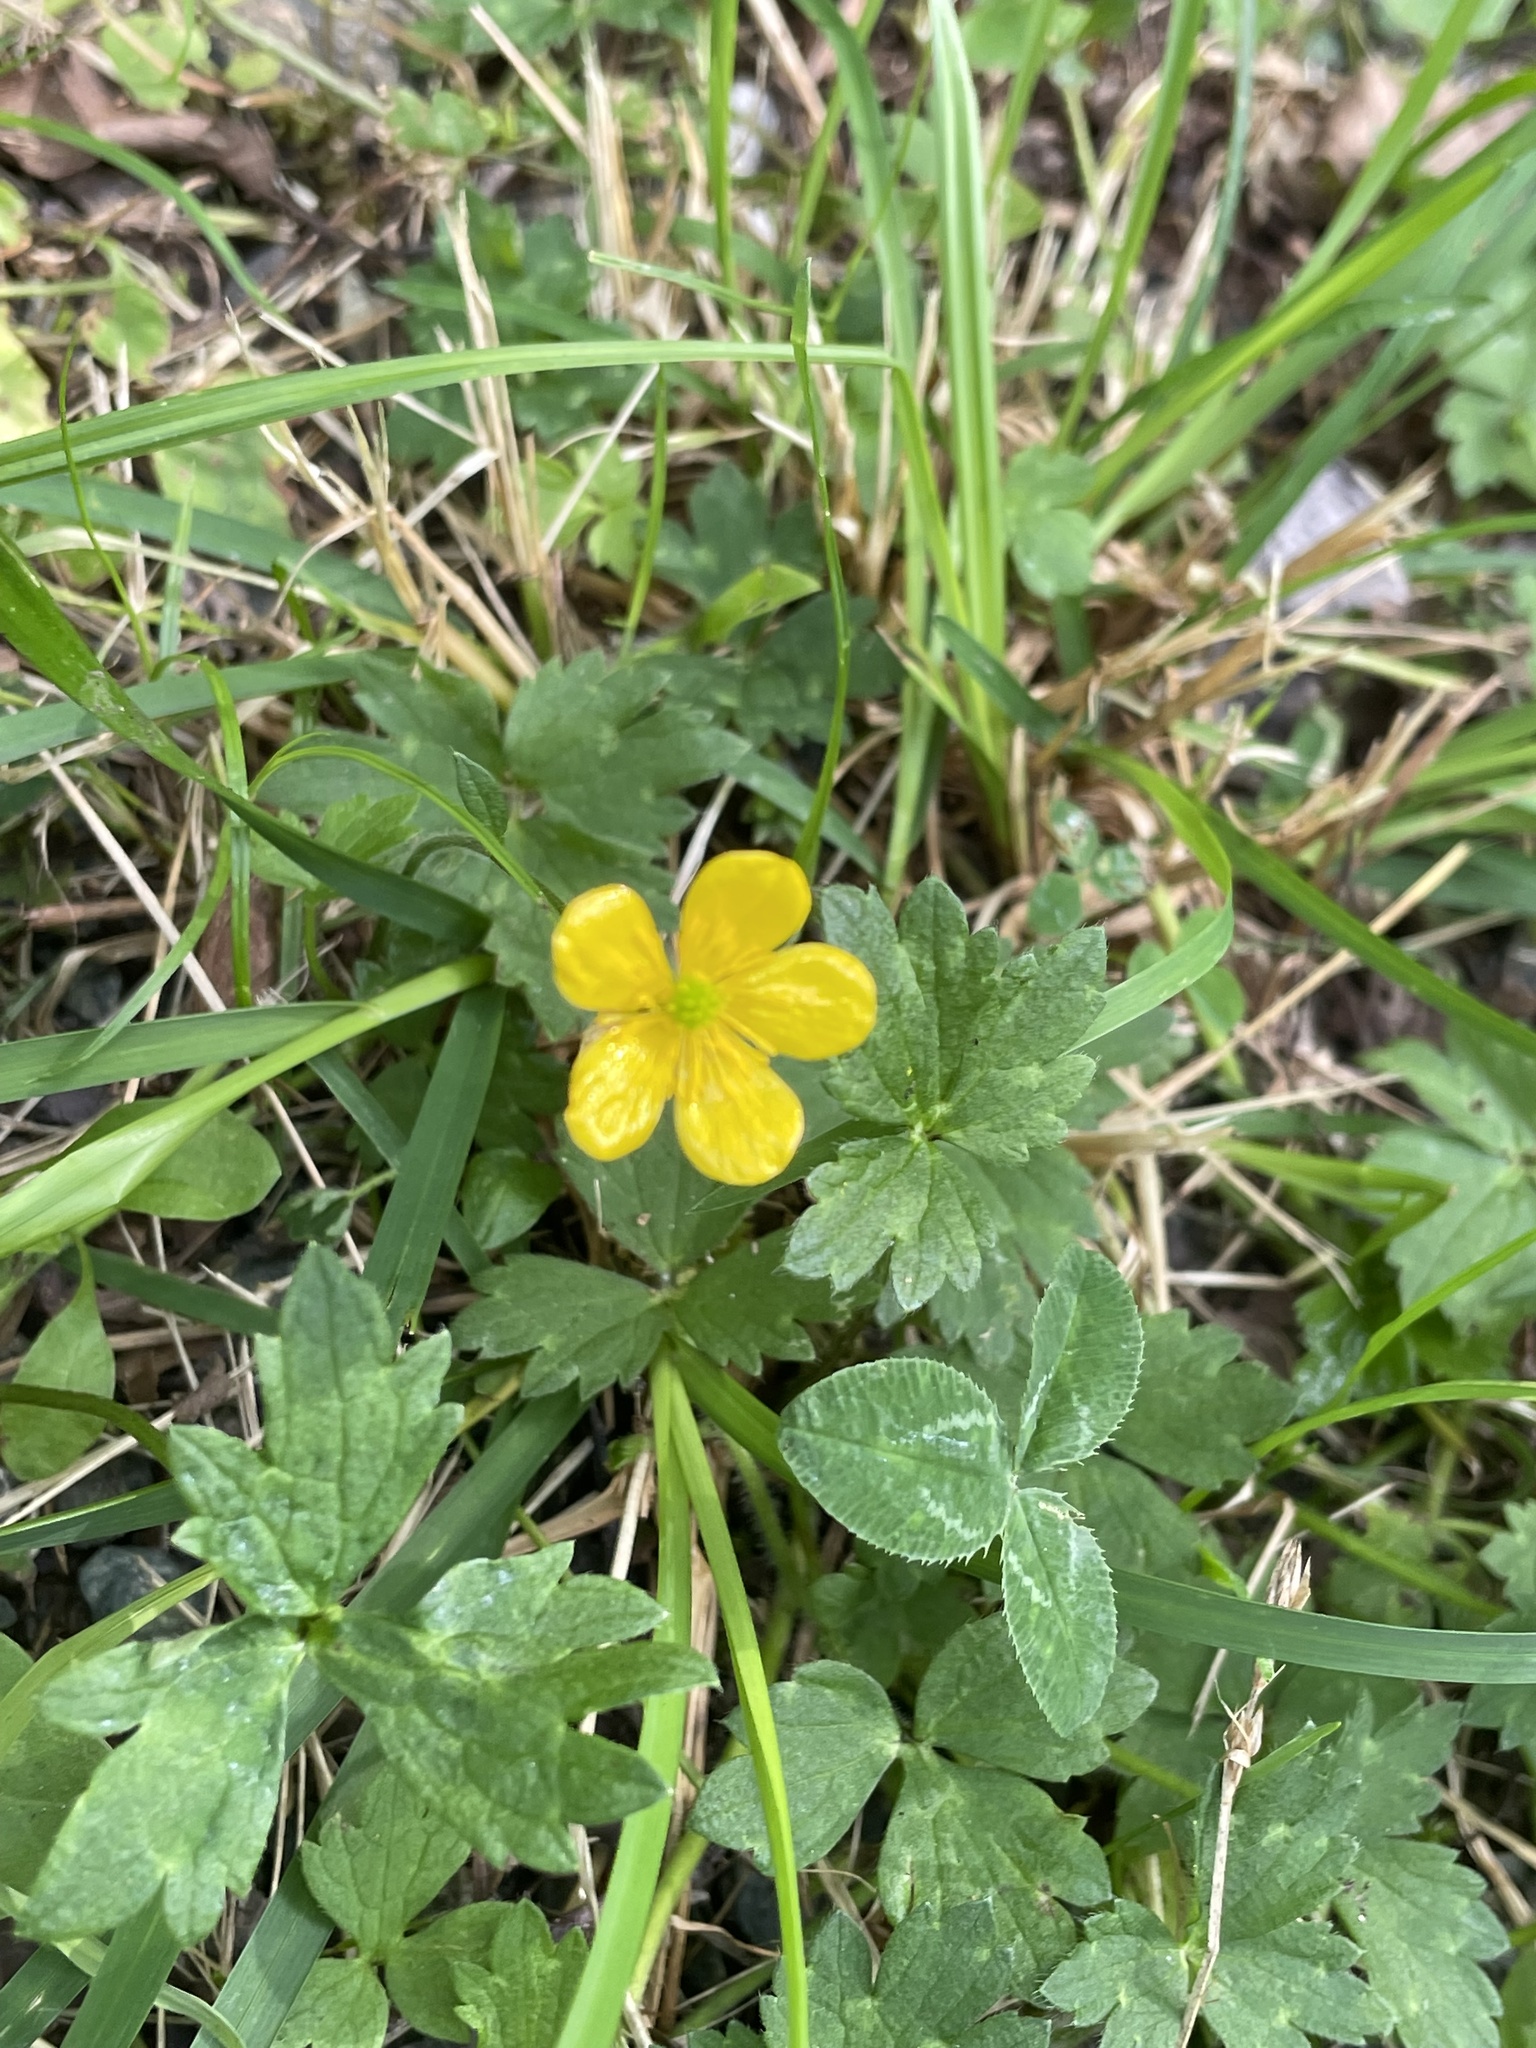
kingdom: Plantae
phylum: Tracheophyta
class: Magnoliopsida
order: Ranunculales
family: Ranunculaceae
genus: Ranunculus
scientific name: Ranunculus repens
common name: Creeping buttercup
